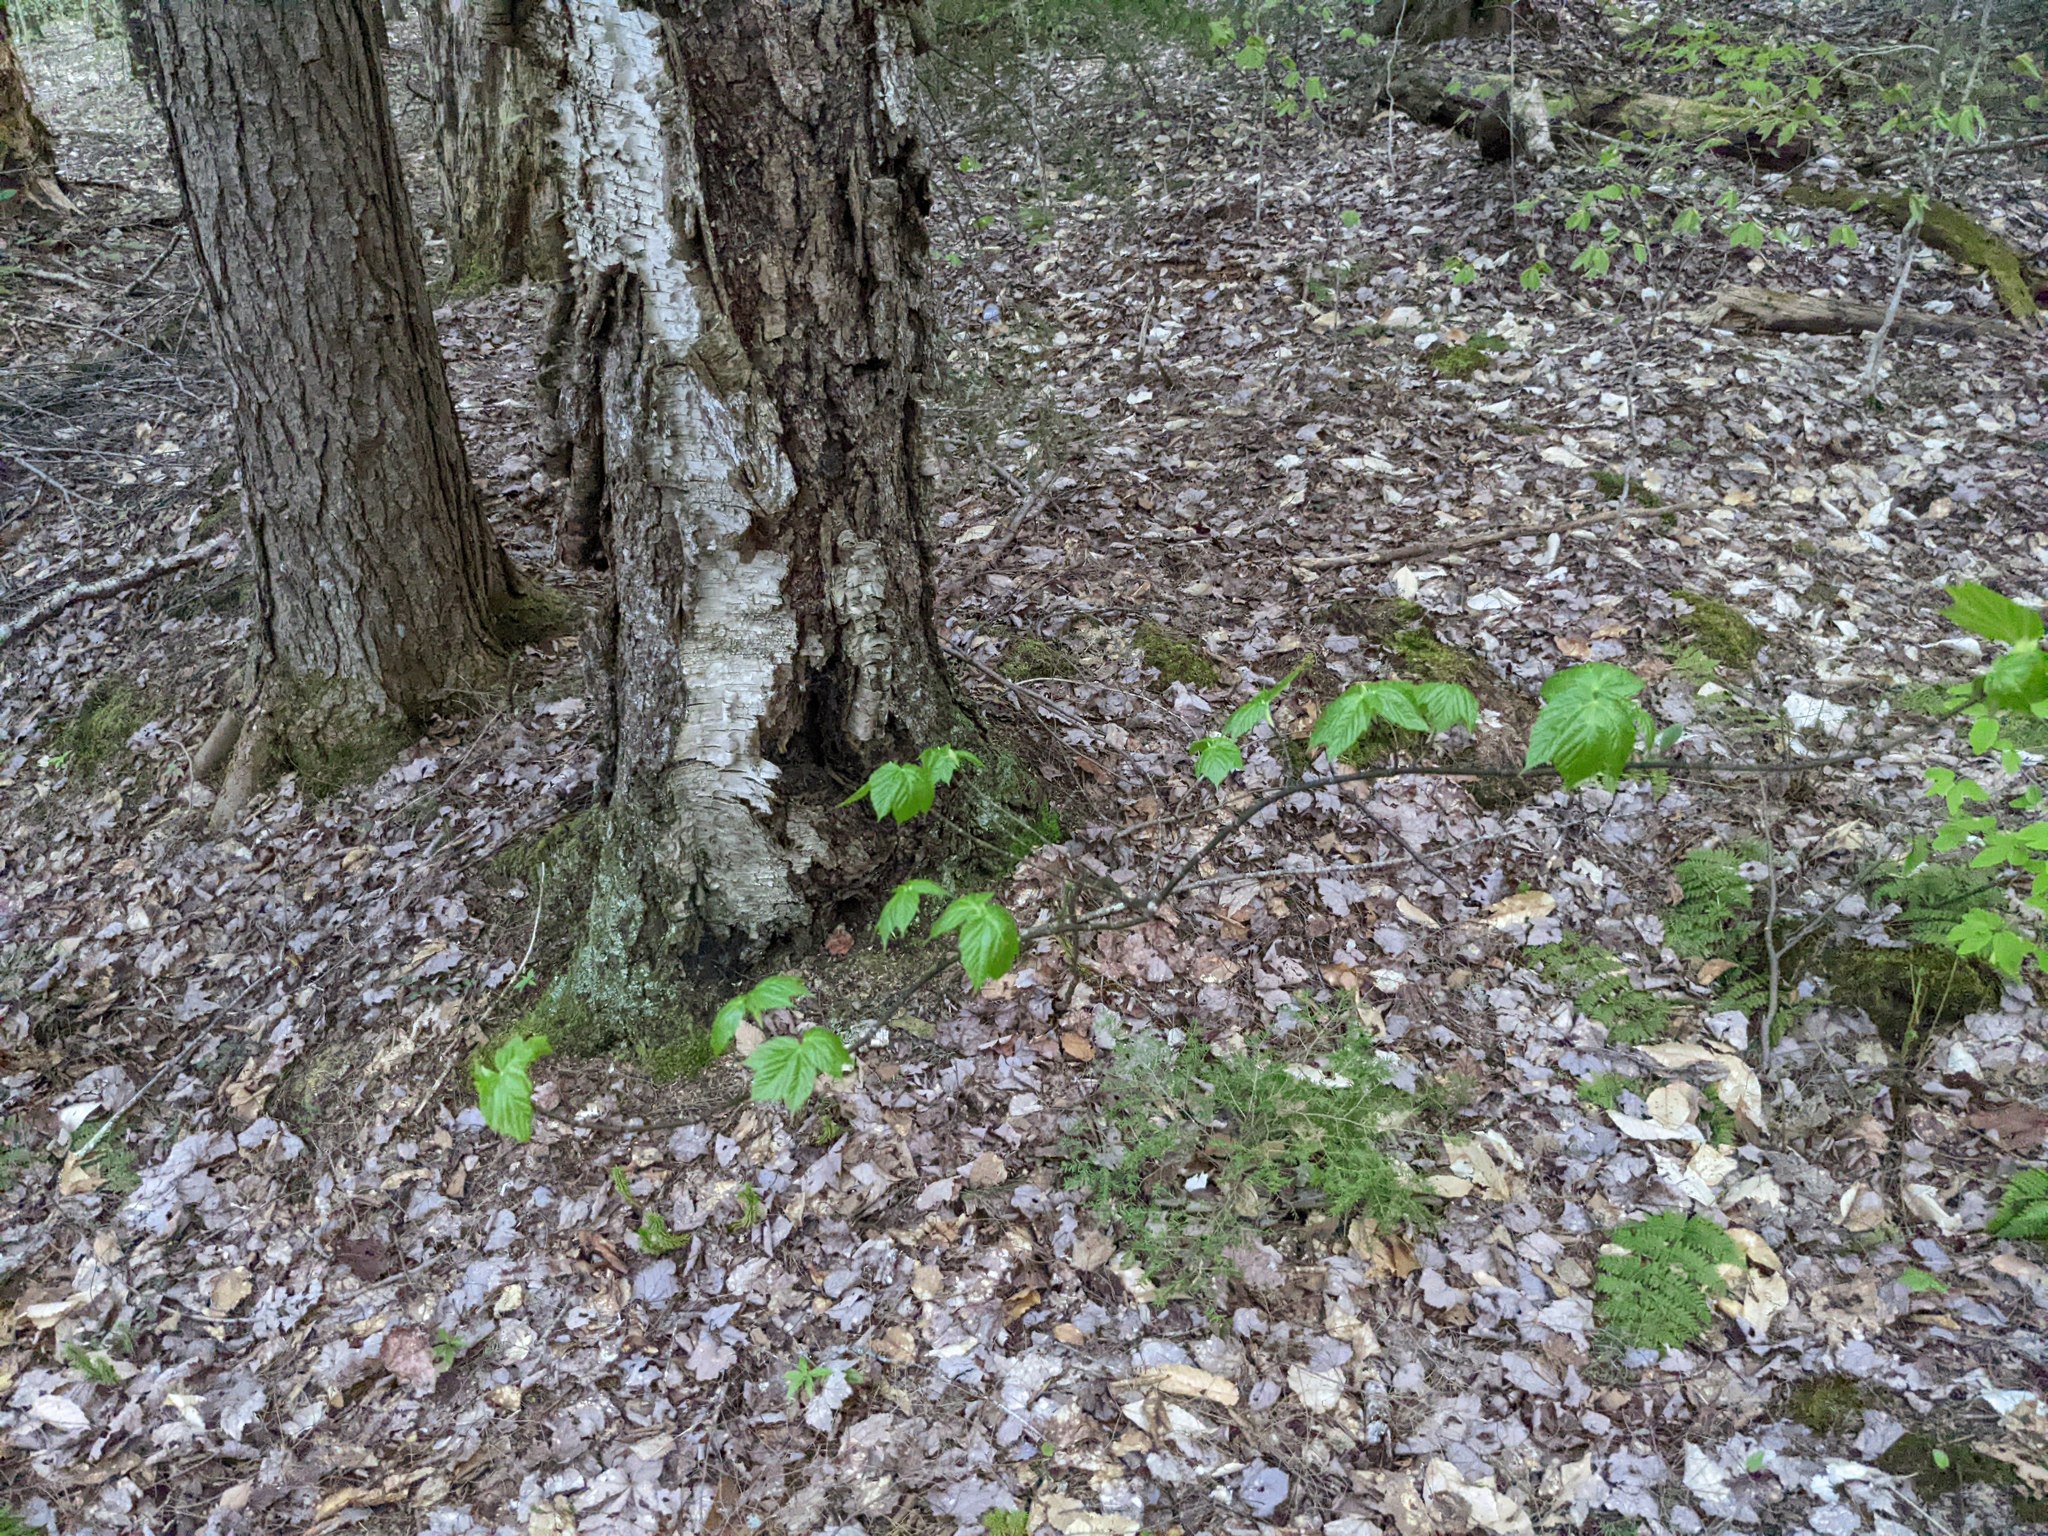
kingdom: Plantae
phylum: Tracheophyta
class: Magnoliopsida
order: Sapindales
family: Sapindaceae
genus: Acer
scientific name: Acer pensylvanicum
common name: Moosewood
